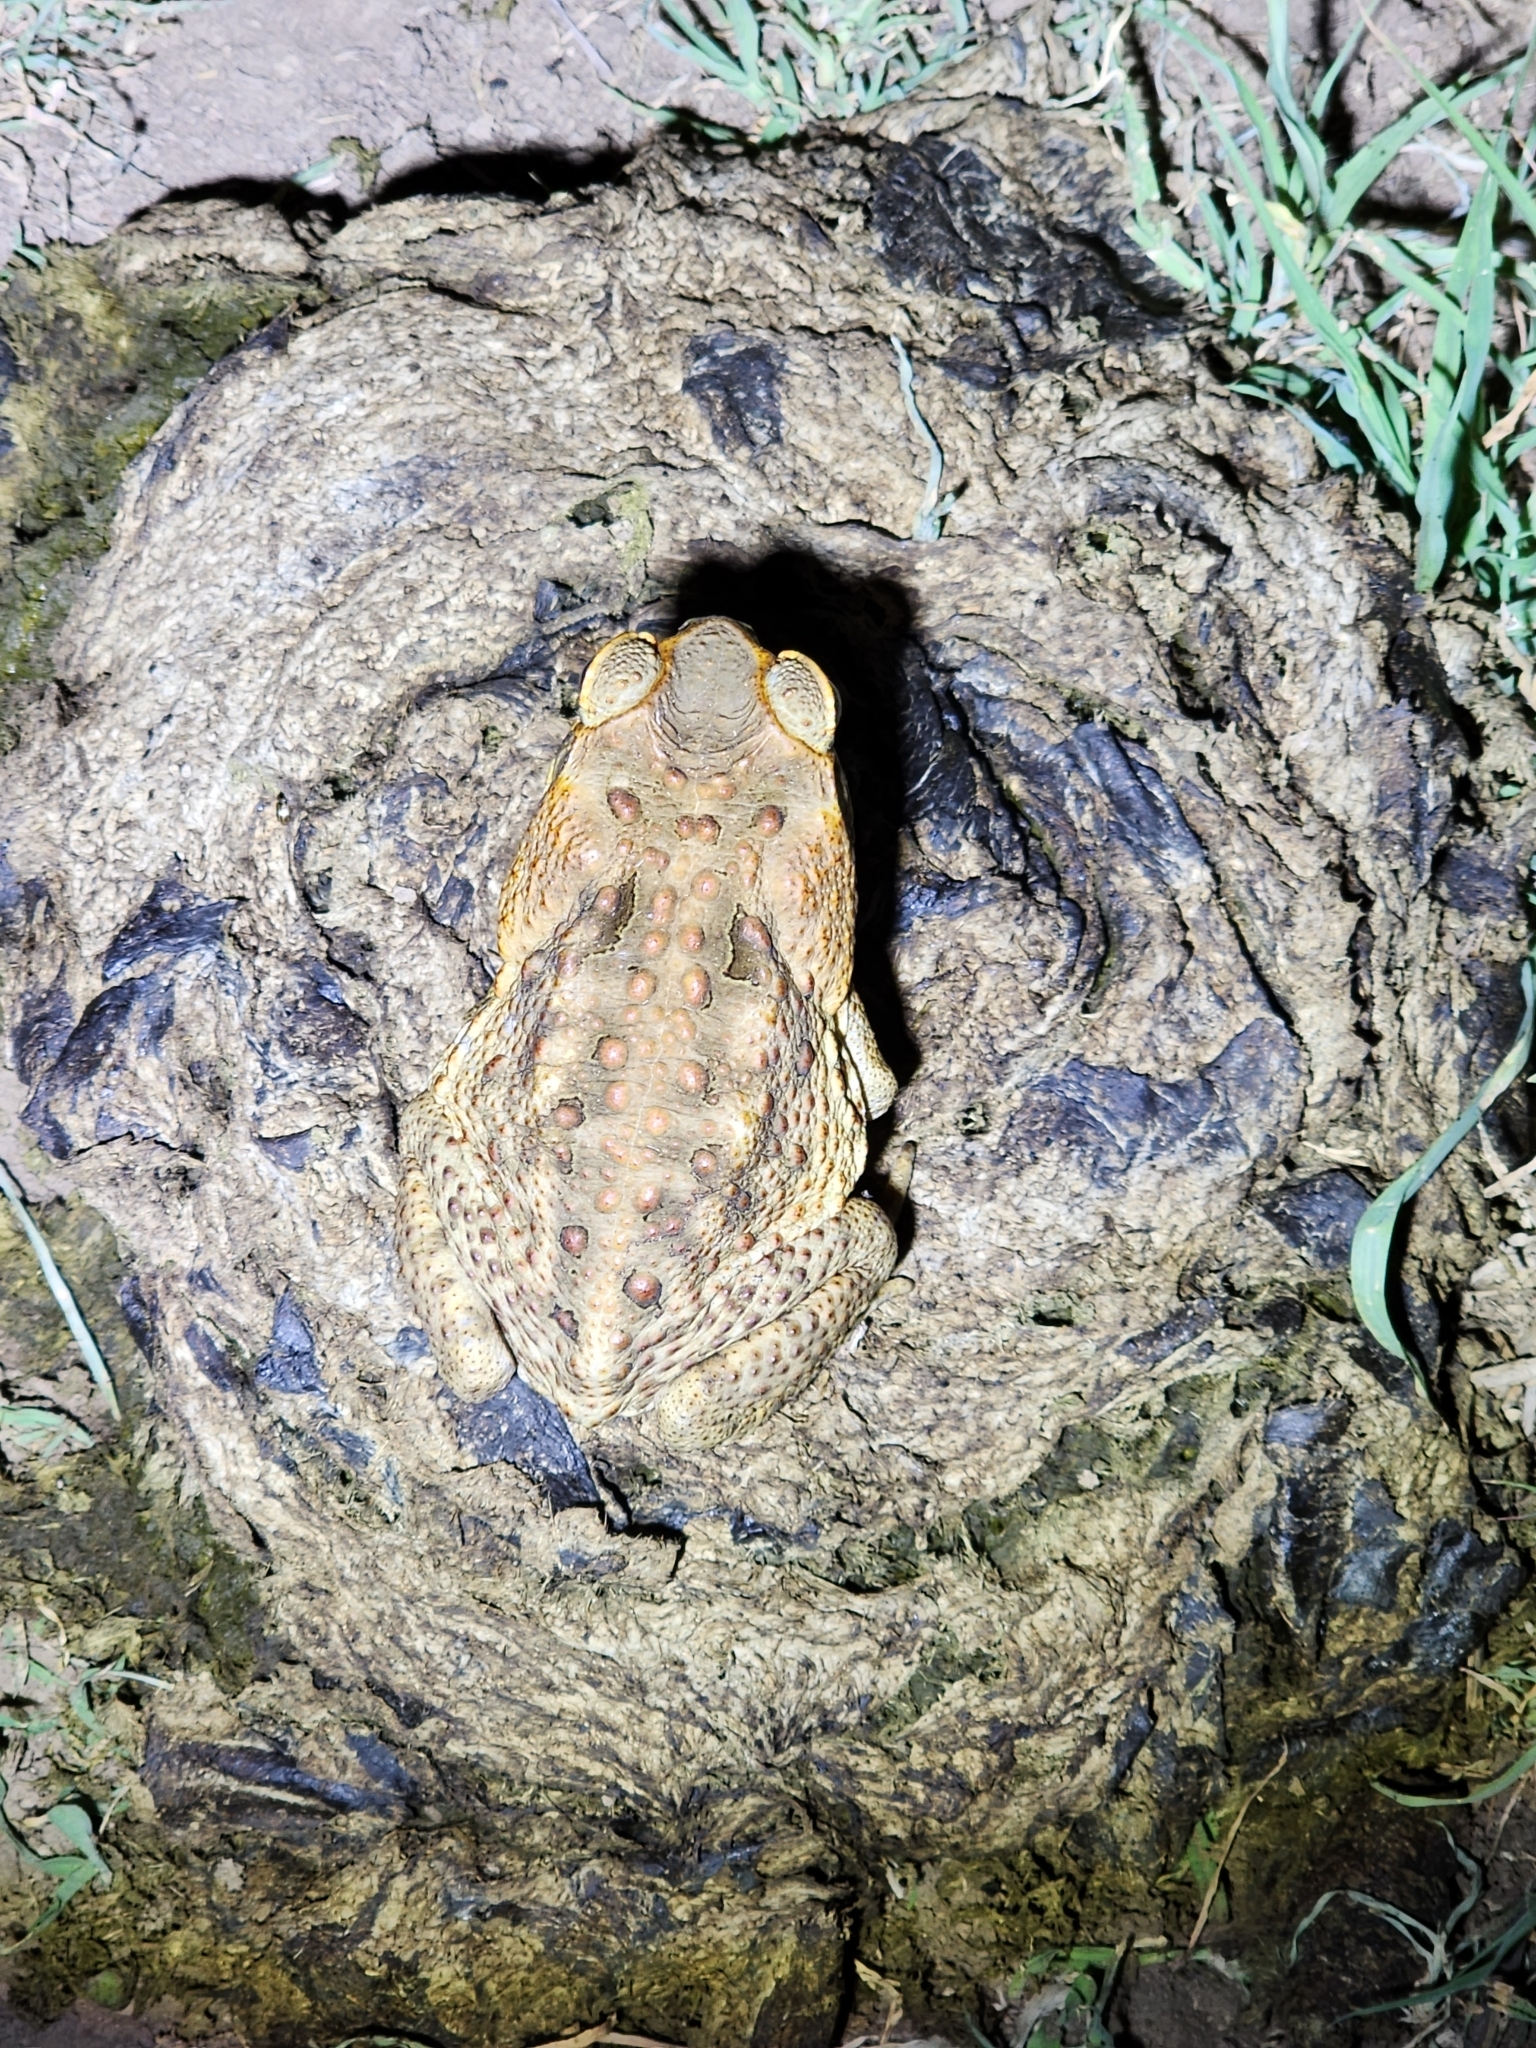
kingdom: Animalia
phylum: Chordata
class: Amphibia
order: Anura
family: Bufonidae
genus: Rhinella
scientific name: Rhinella marina
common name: Cane toad
